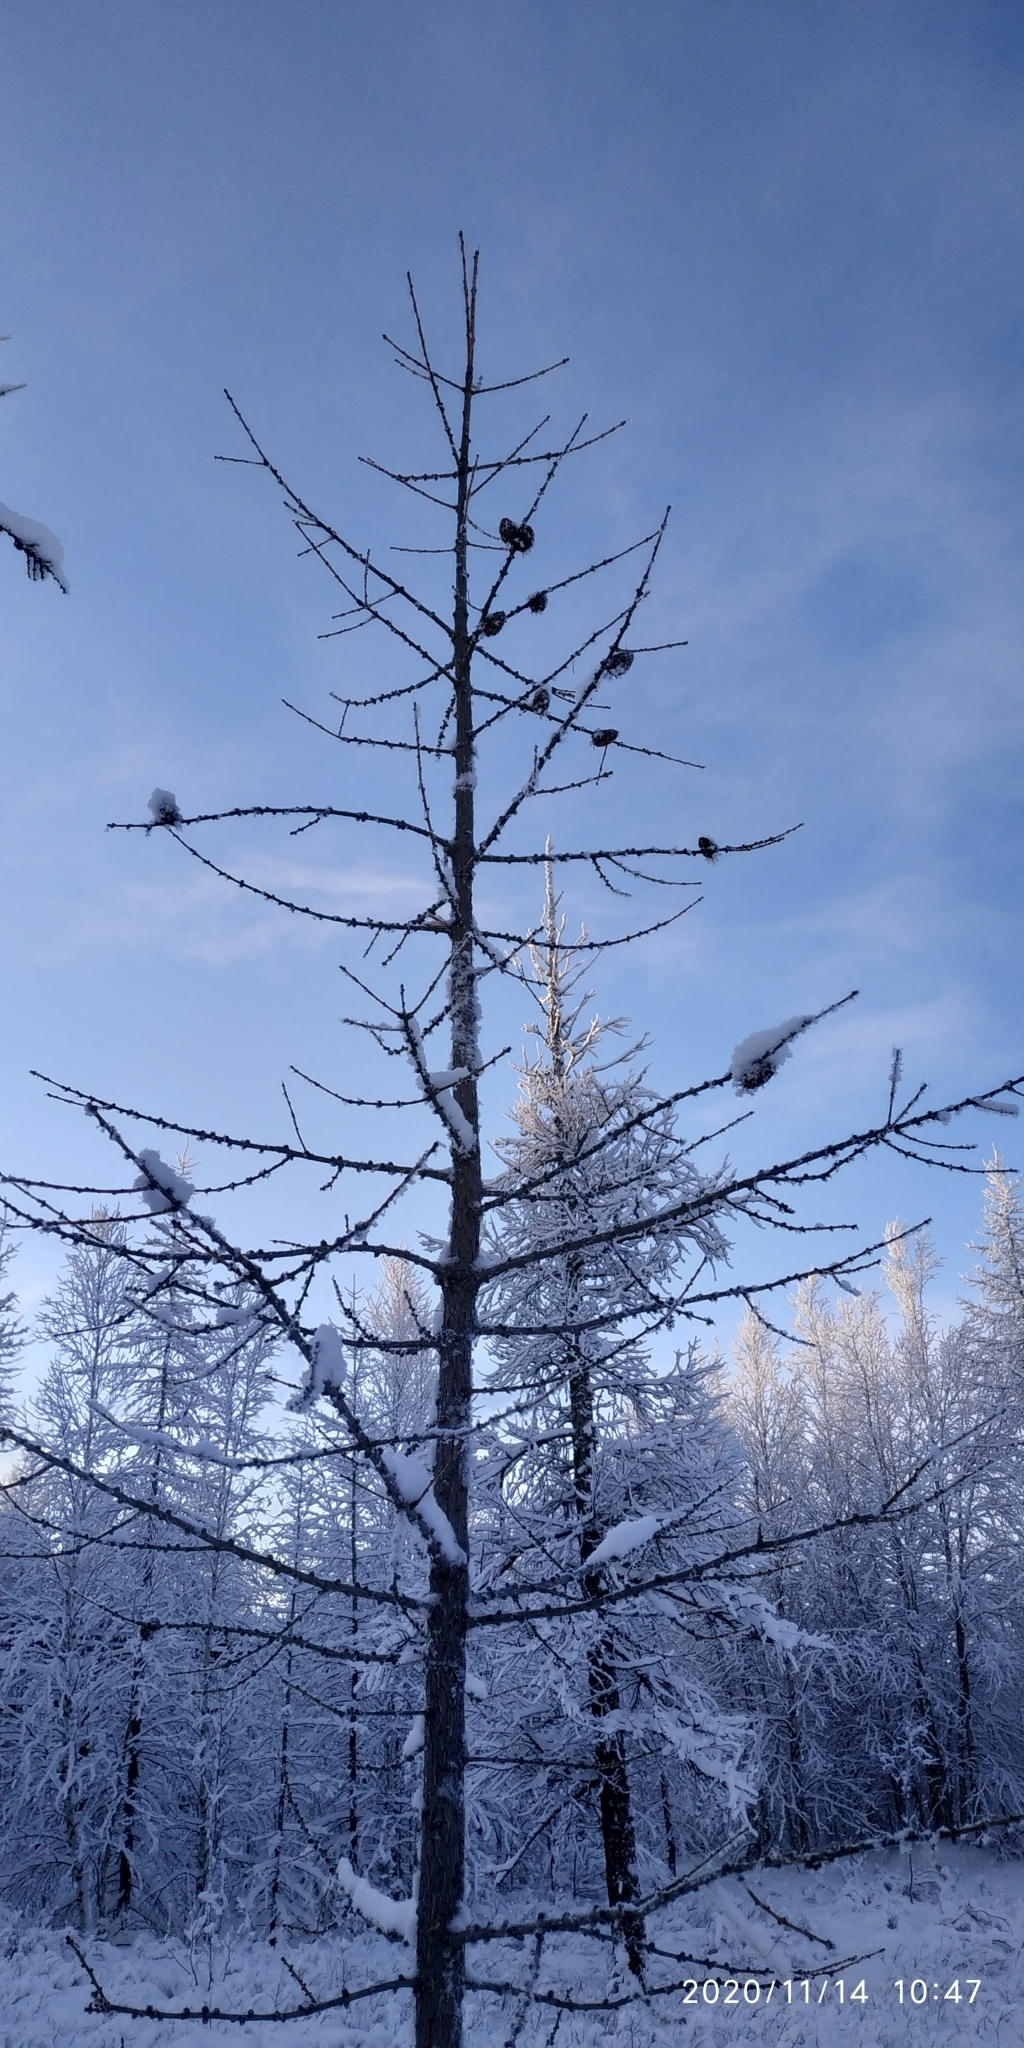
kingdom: Plantae
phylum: Tracheophyta
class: Pinopsida
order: Pinales
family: Pinaceae
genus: Larix
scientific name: Larix sibirica
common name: Siberian larch
